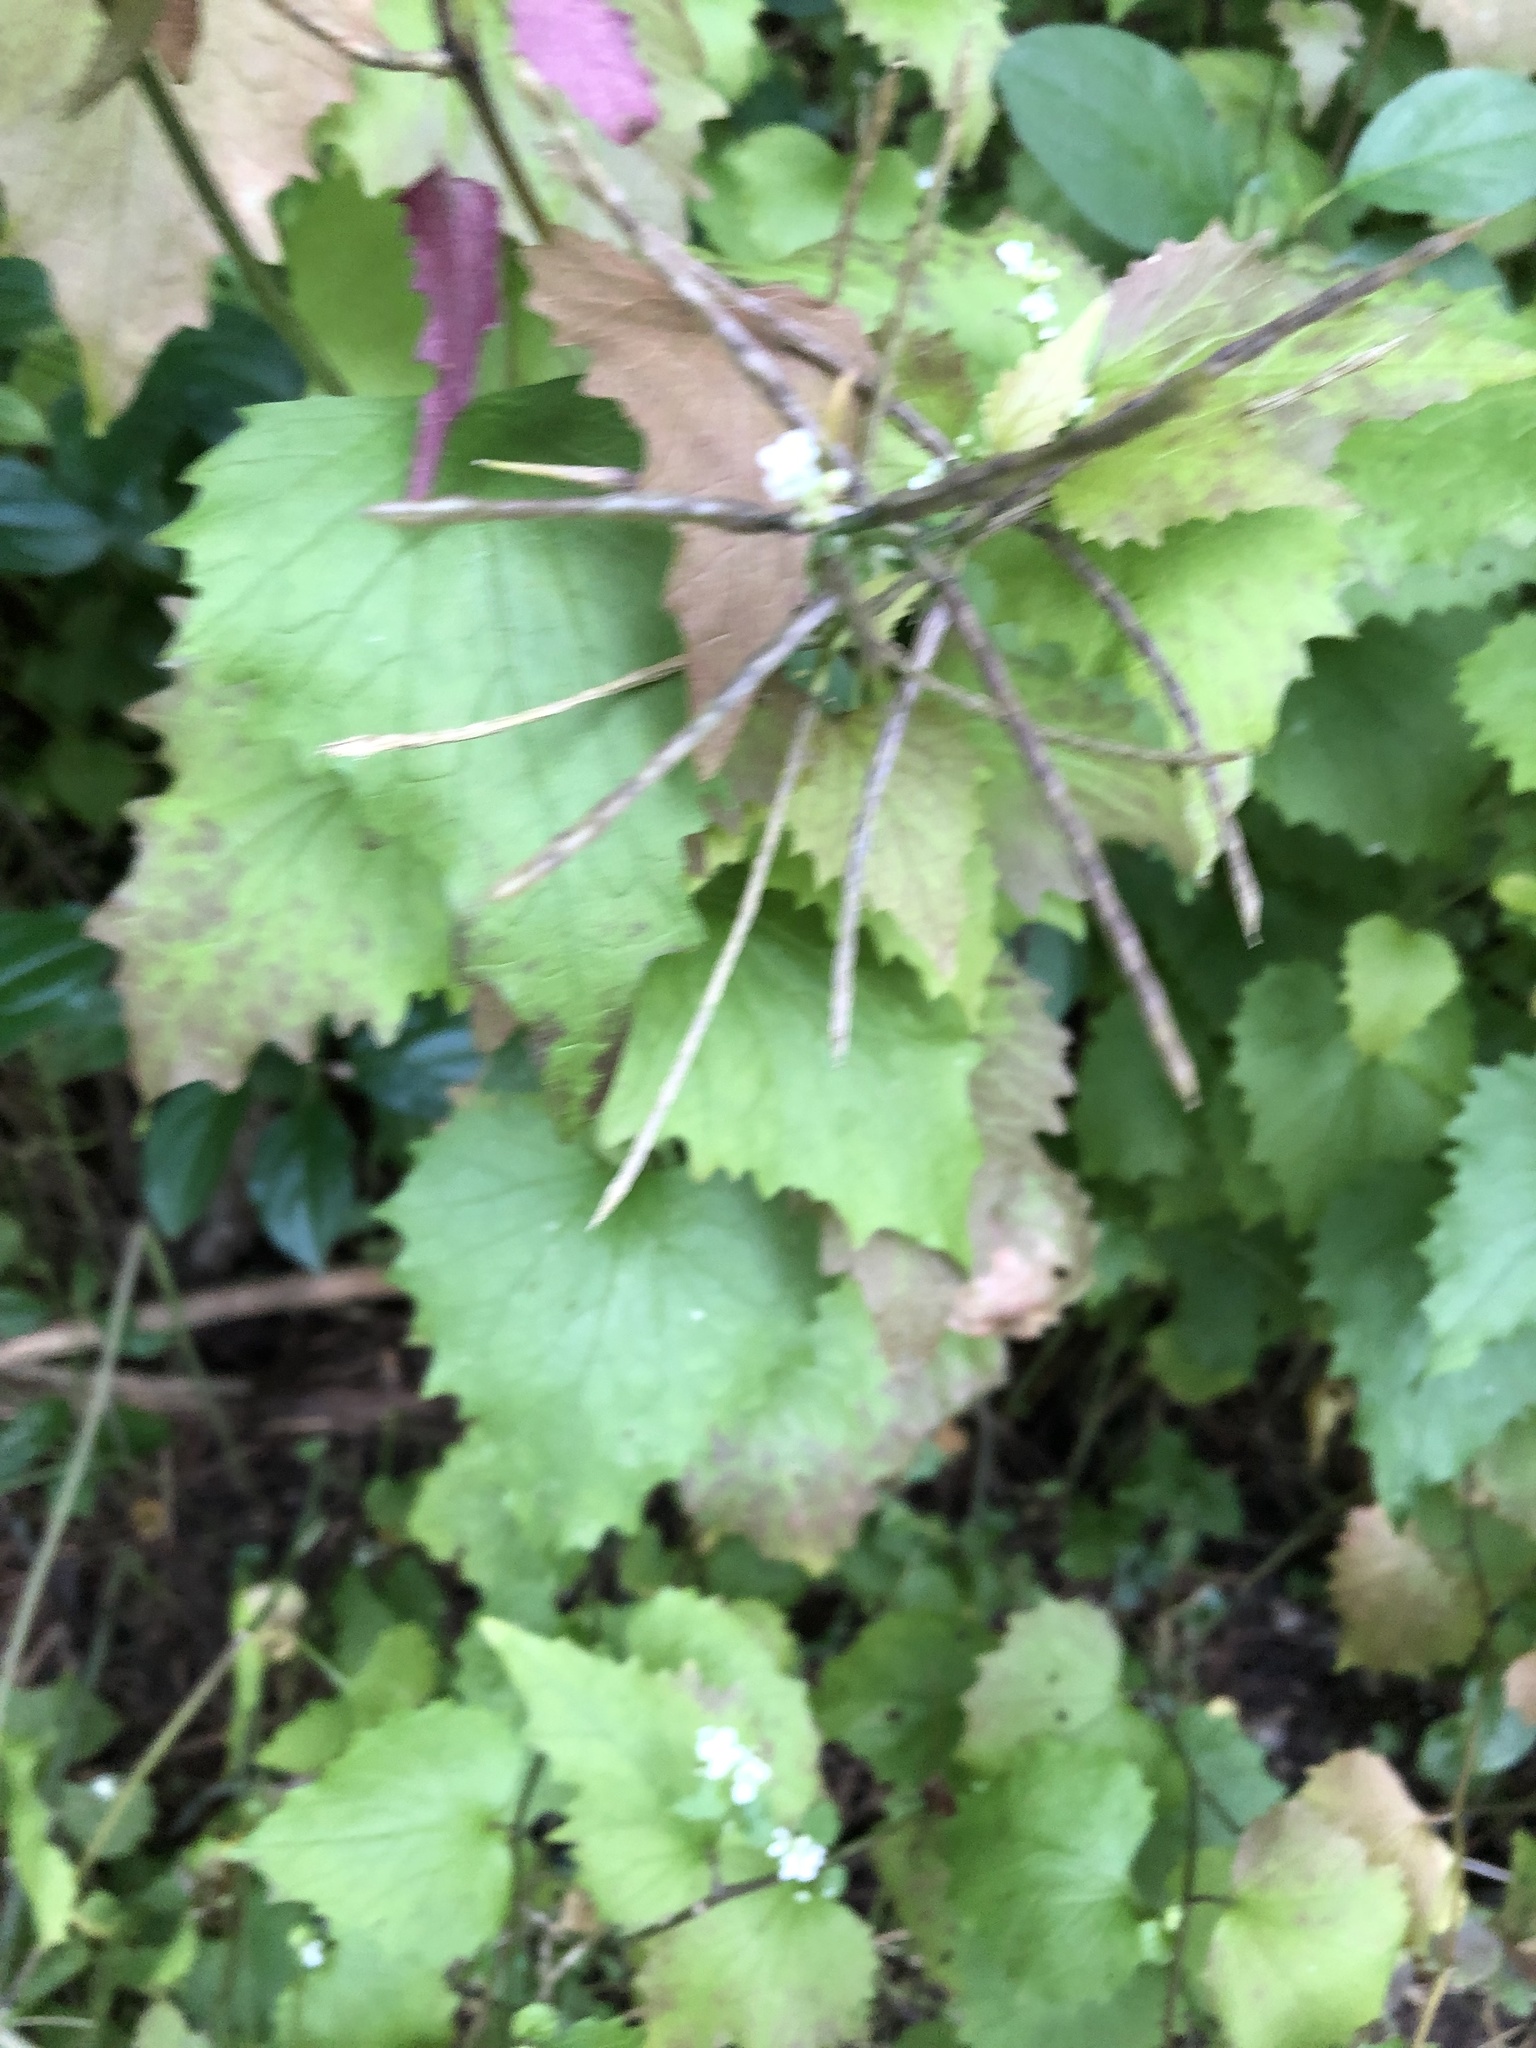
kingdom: Plantae
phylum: Tracheophyta
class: Magnoliopsida
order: Brassicales
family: Brassicaceae
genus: Alliaria
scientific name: Alliaria petiolata
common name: Garlic mustard
